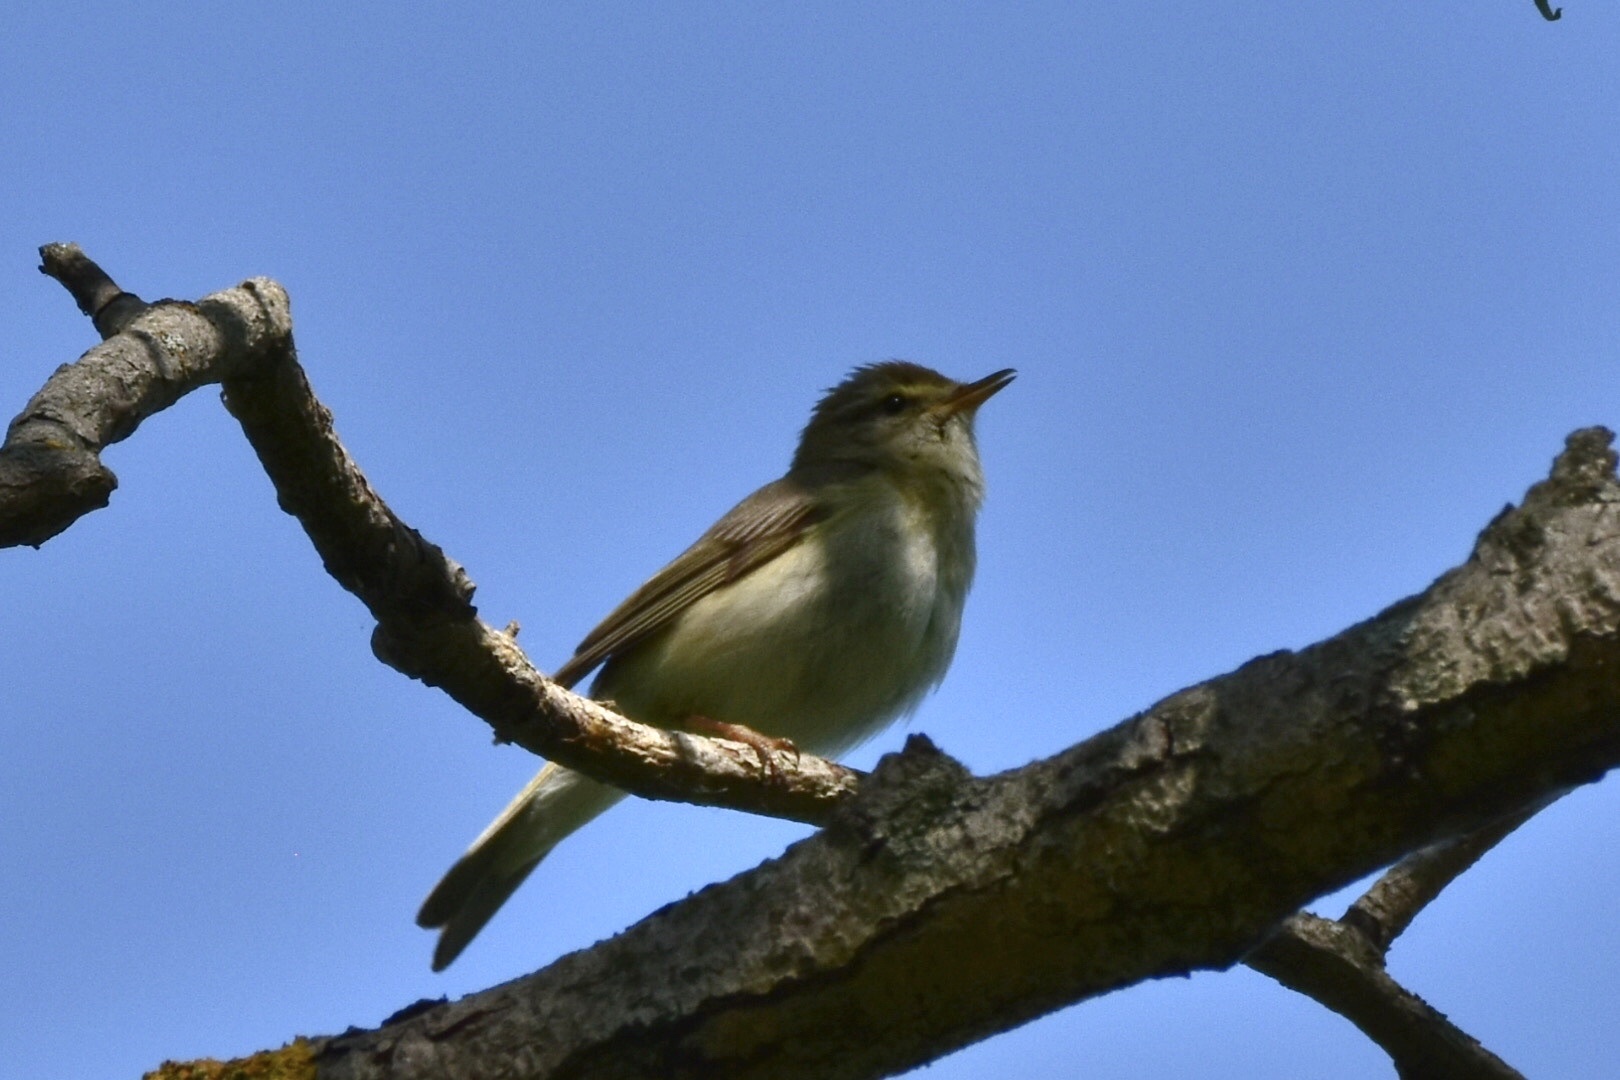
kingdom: Animalia
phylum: Chordata
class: Aves
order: Passeriformes
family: Phylloscopidae
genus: Phylloscopus
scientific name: Phylloscopus trochilus
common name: Willow warbler
